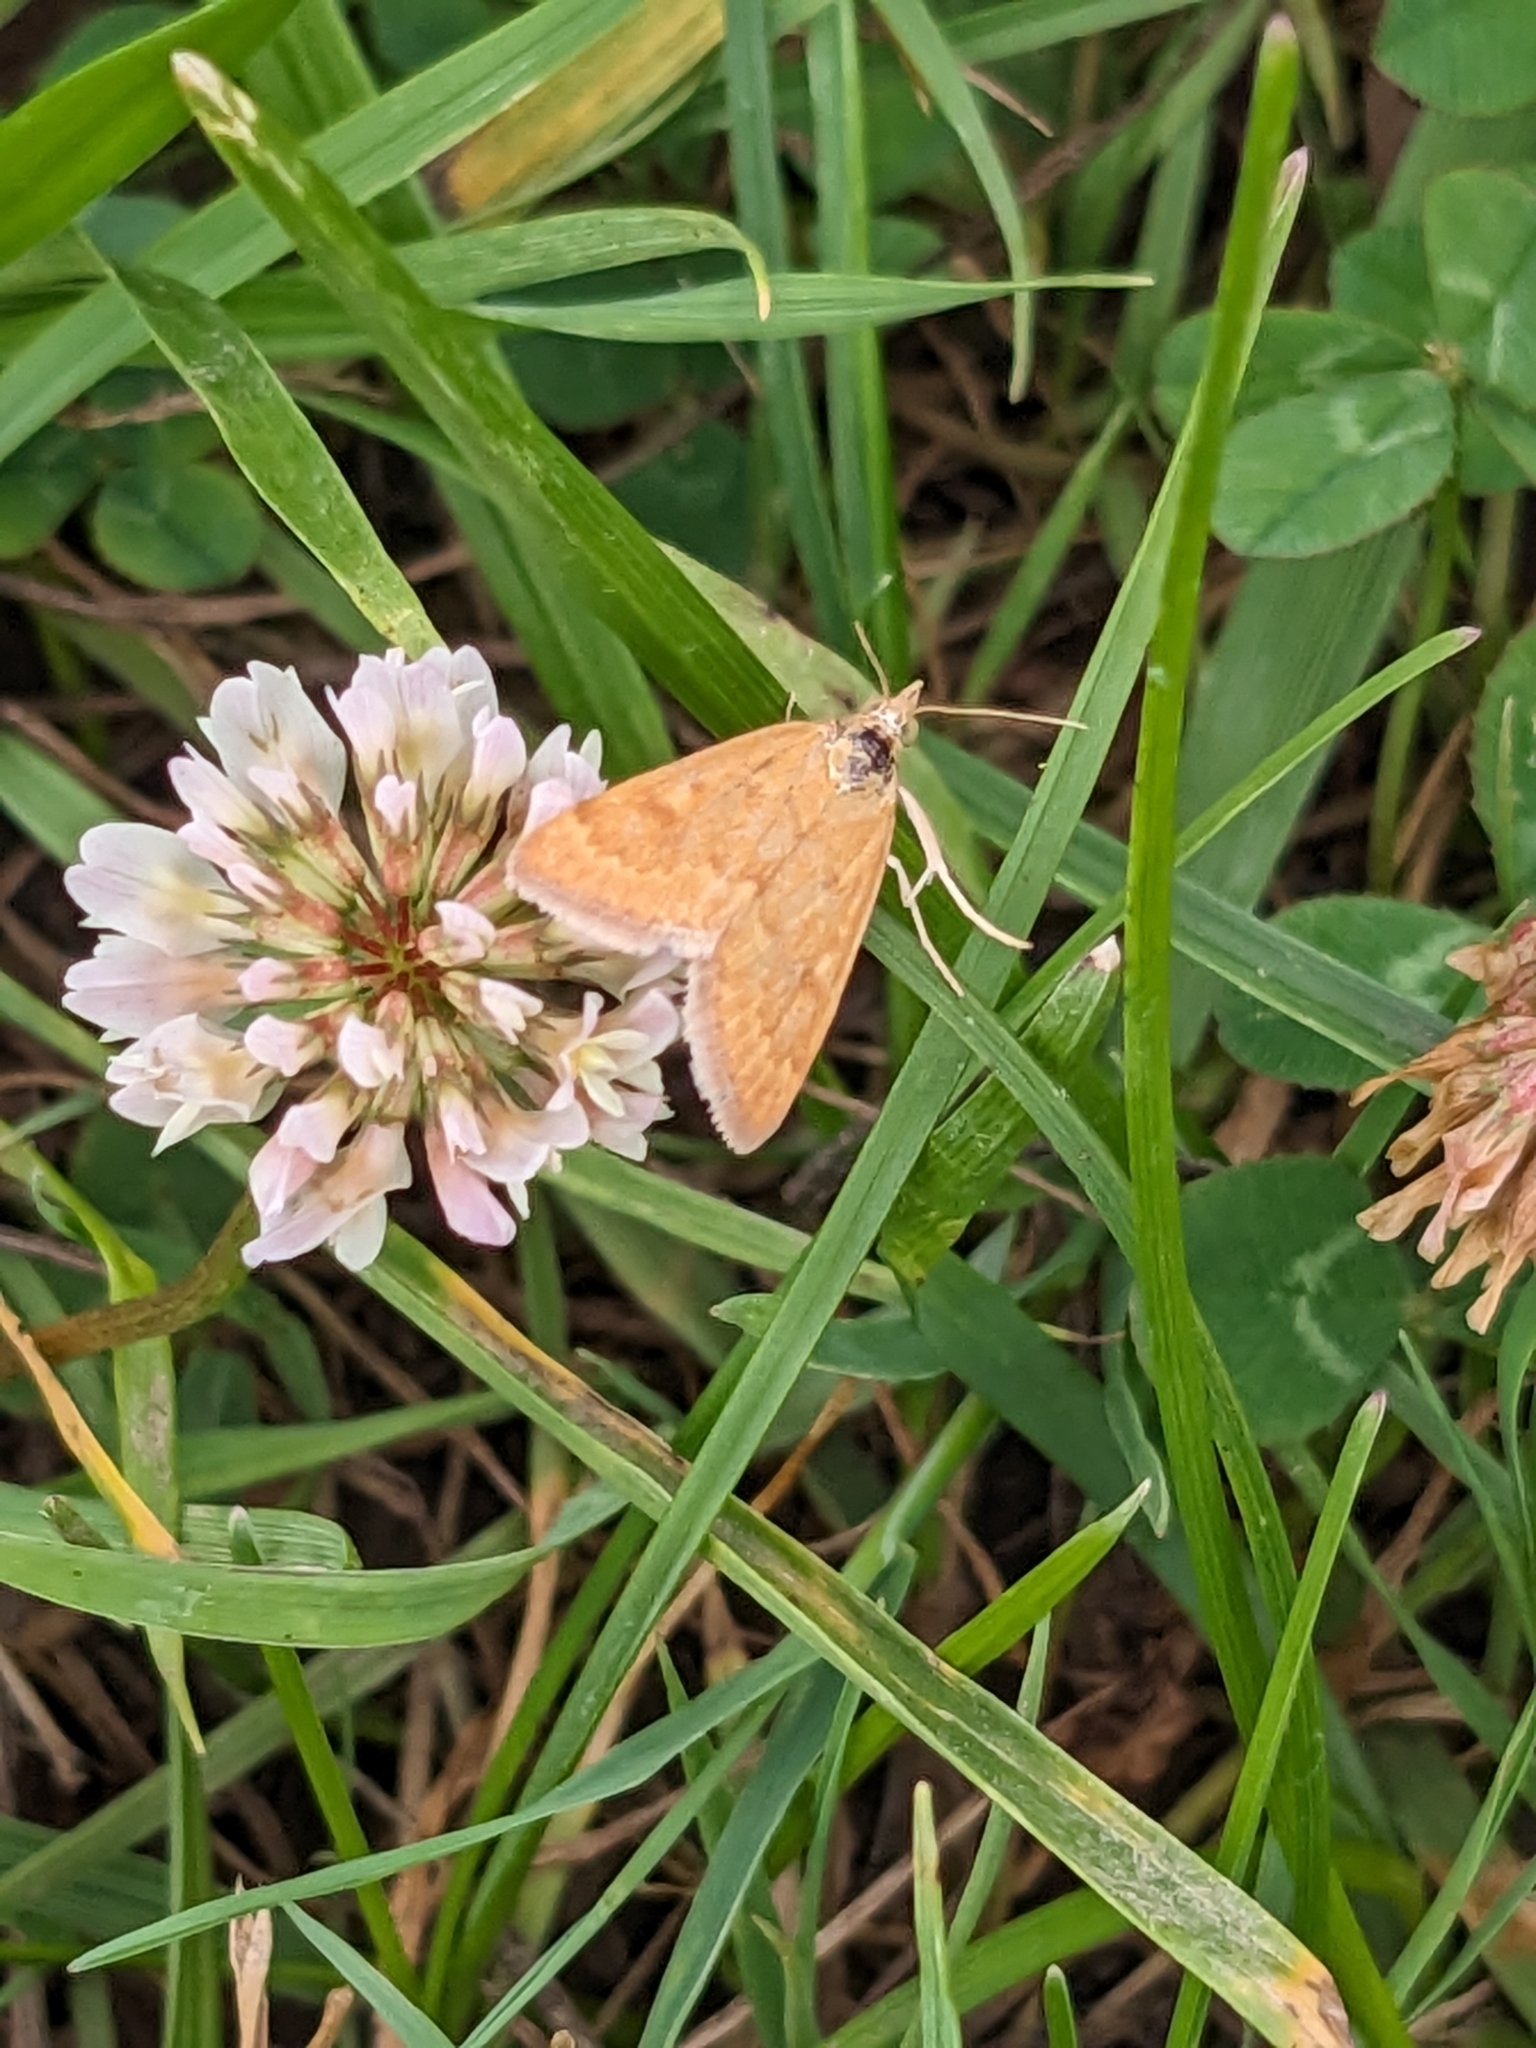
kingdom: Animalia
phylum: Arthropoda
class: Insecta
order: Lepidoptera
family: Crambidae
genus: Achyra
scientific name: Achyra rantalis
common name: Garden webworm
